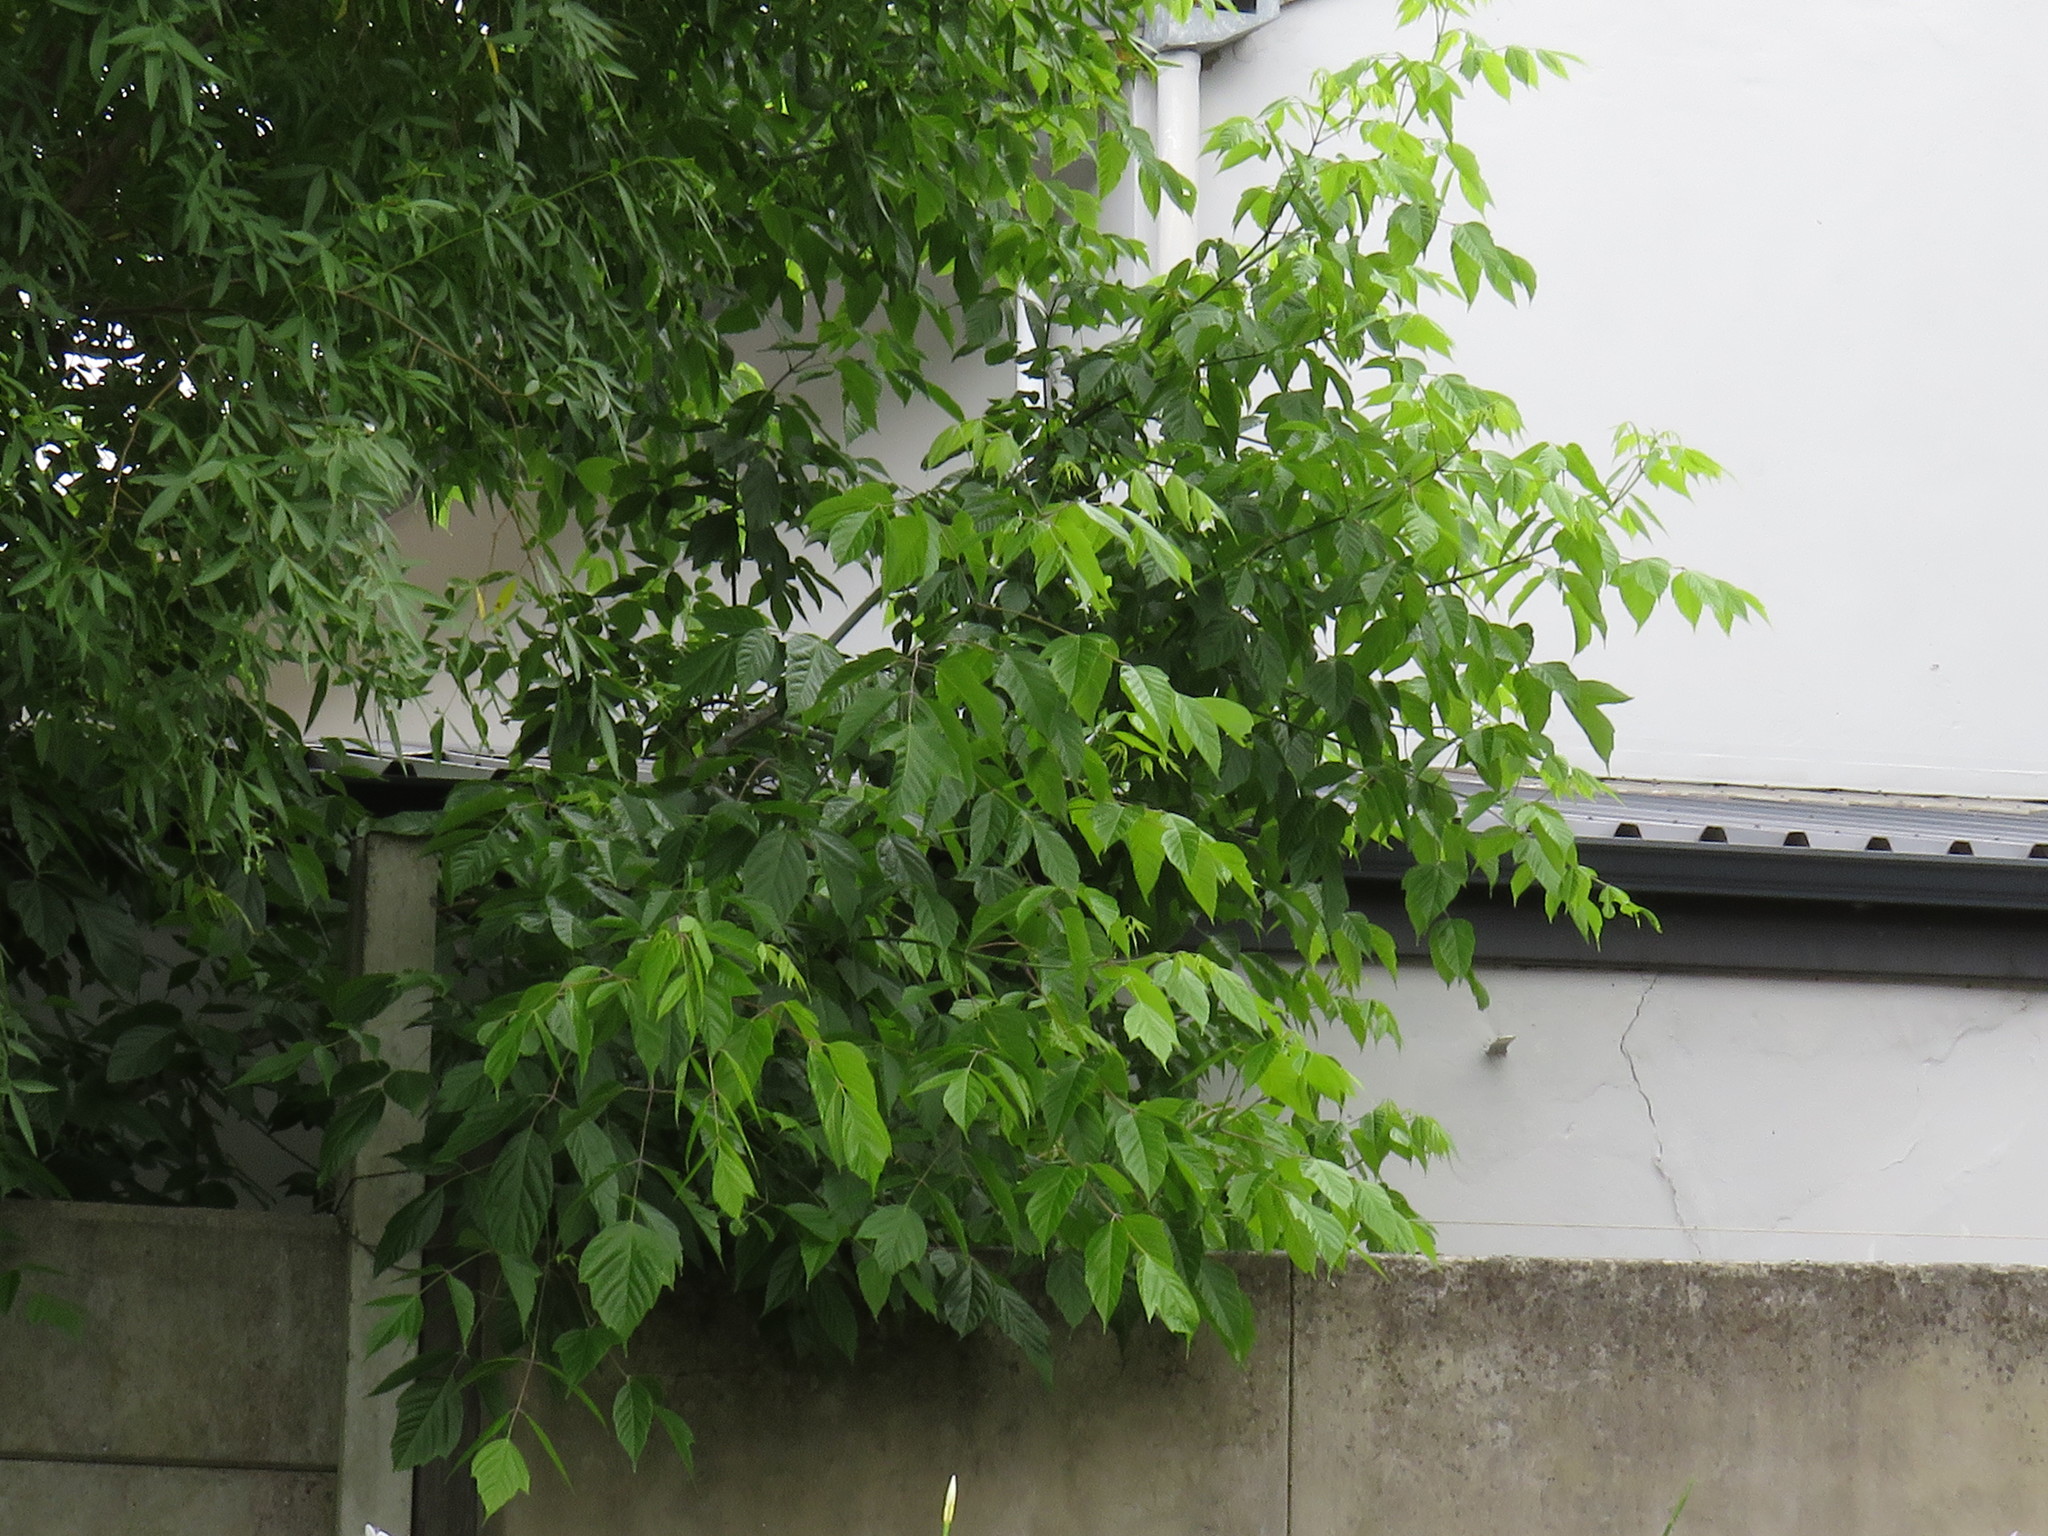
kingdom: Plantae
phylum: Tracheophyta
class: Magnoliopsida
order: Sapindales
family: Sapindaceae
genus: Acer
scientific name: Acer negundo
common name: Ashleaf maple
